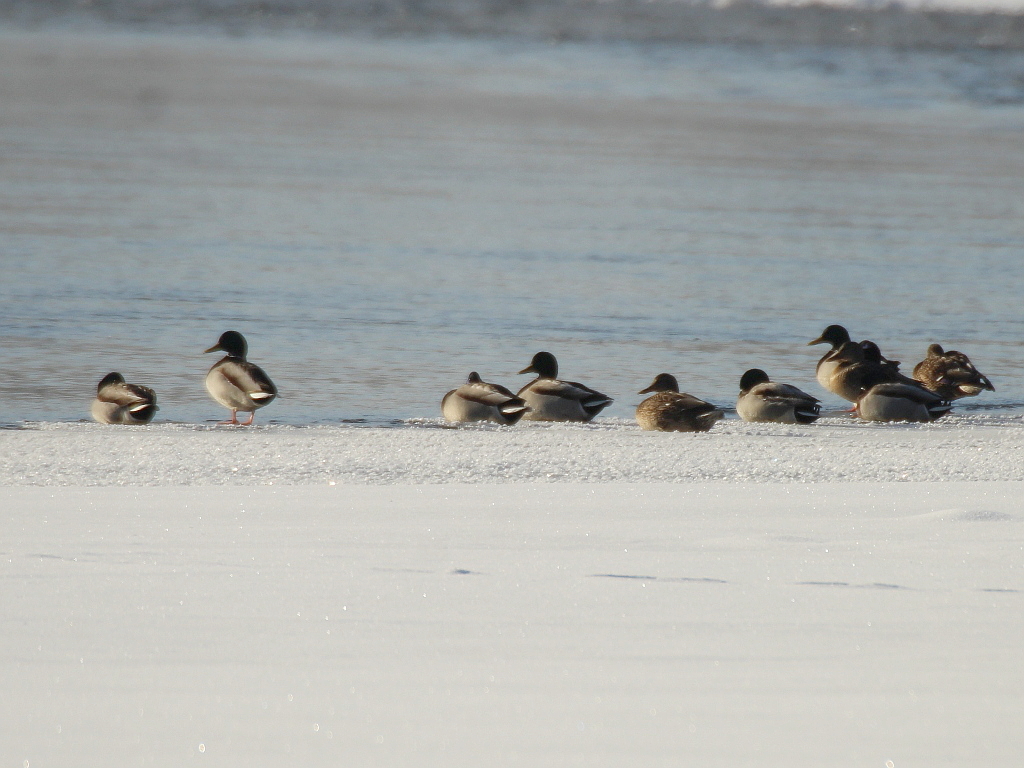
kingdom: Animalia
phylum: Chordata
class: Aves
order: Anseriformes
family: Anatidae
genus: Anas
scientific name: Anas platyrhynchos
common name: Mallard
